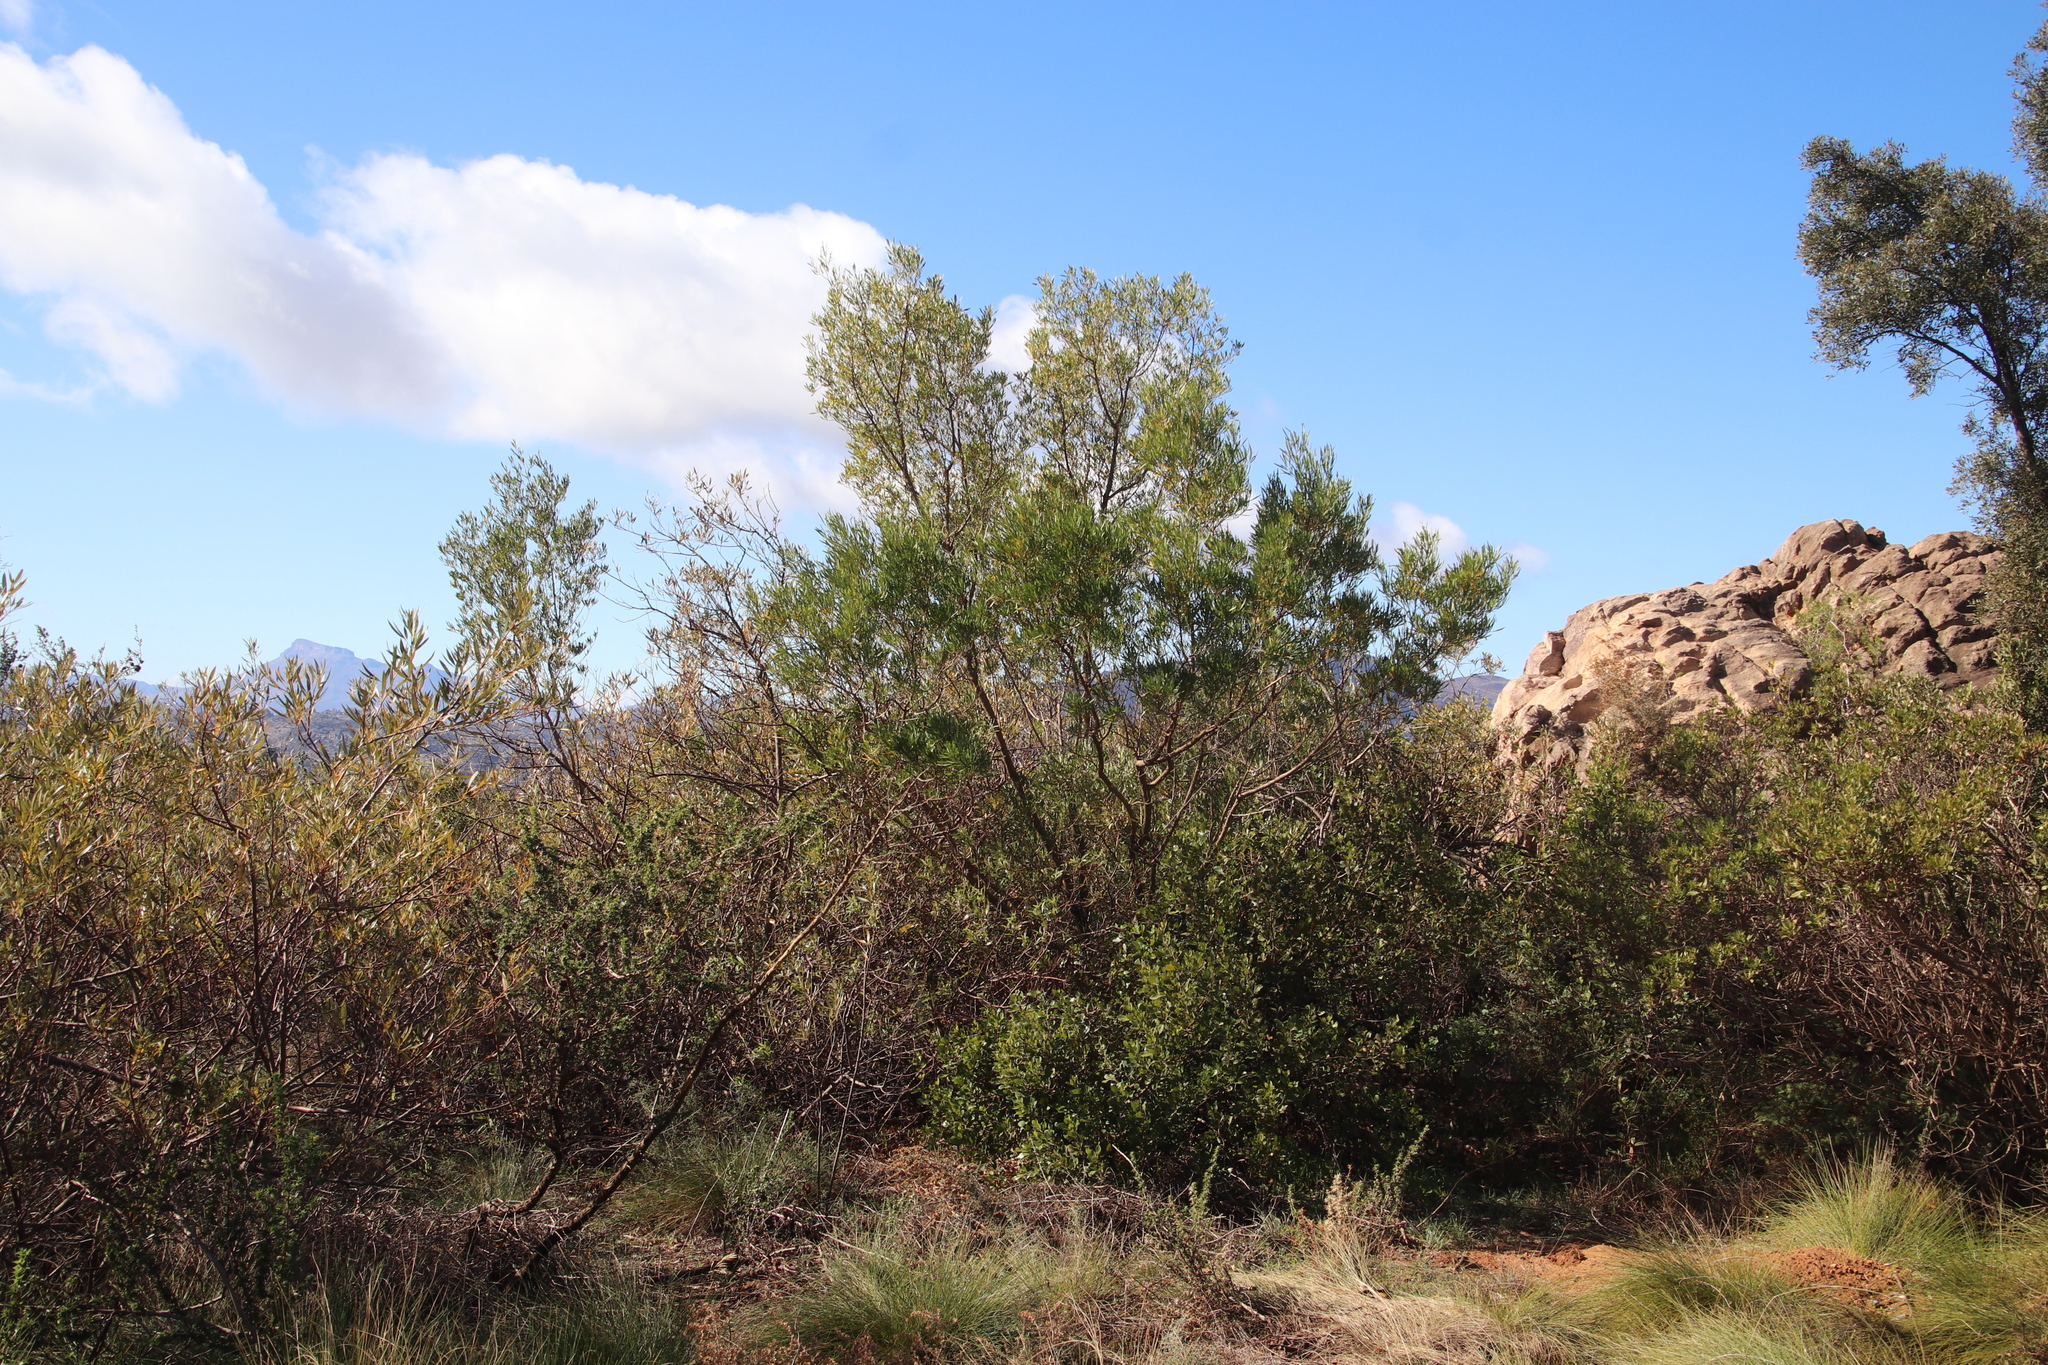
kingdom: Plantae
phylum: Tracheophyta
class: Magnoliopsida
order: Sapindales
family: Sapindaceae
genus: Dodonaea
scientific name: Dodonaea viscosa
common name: Hopbush
